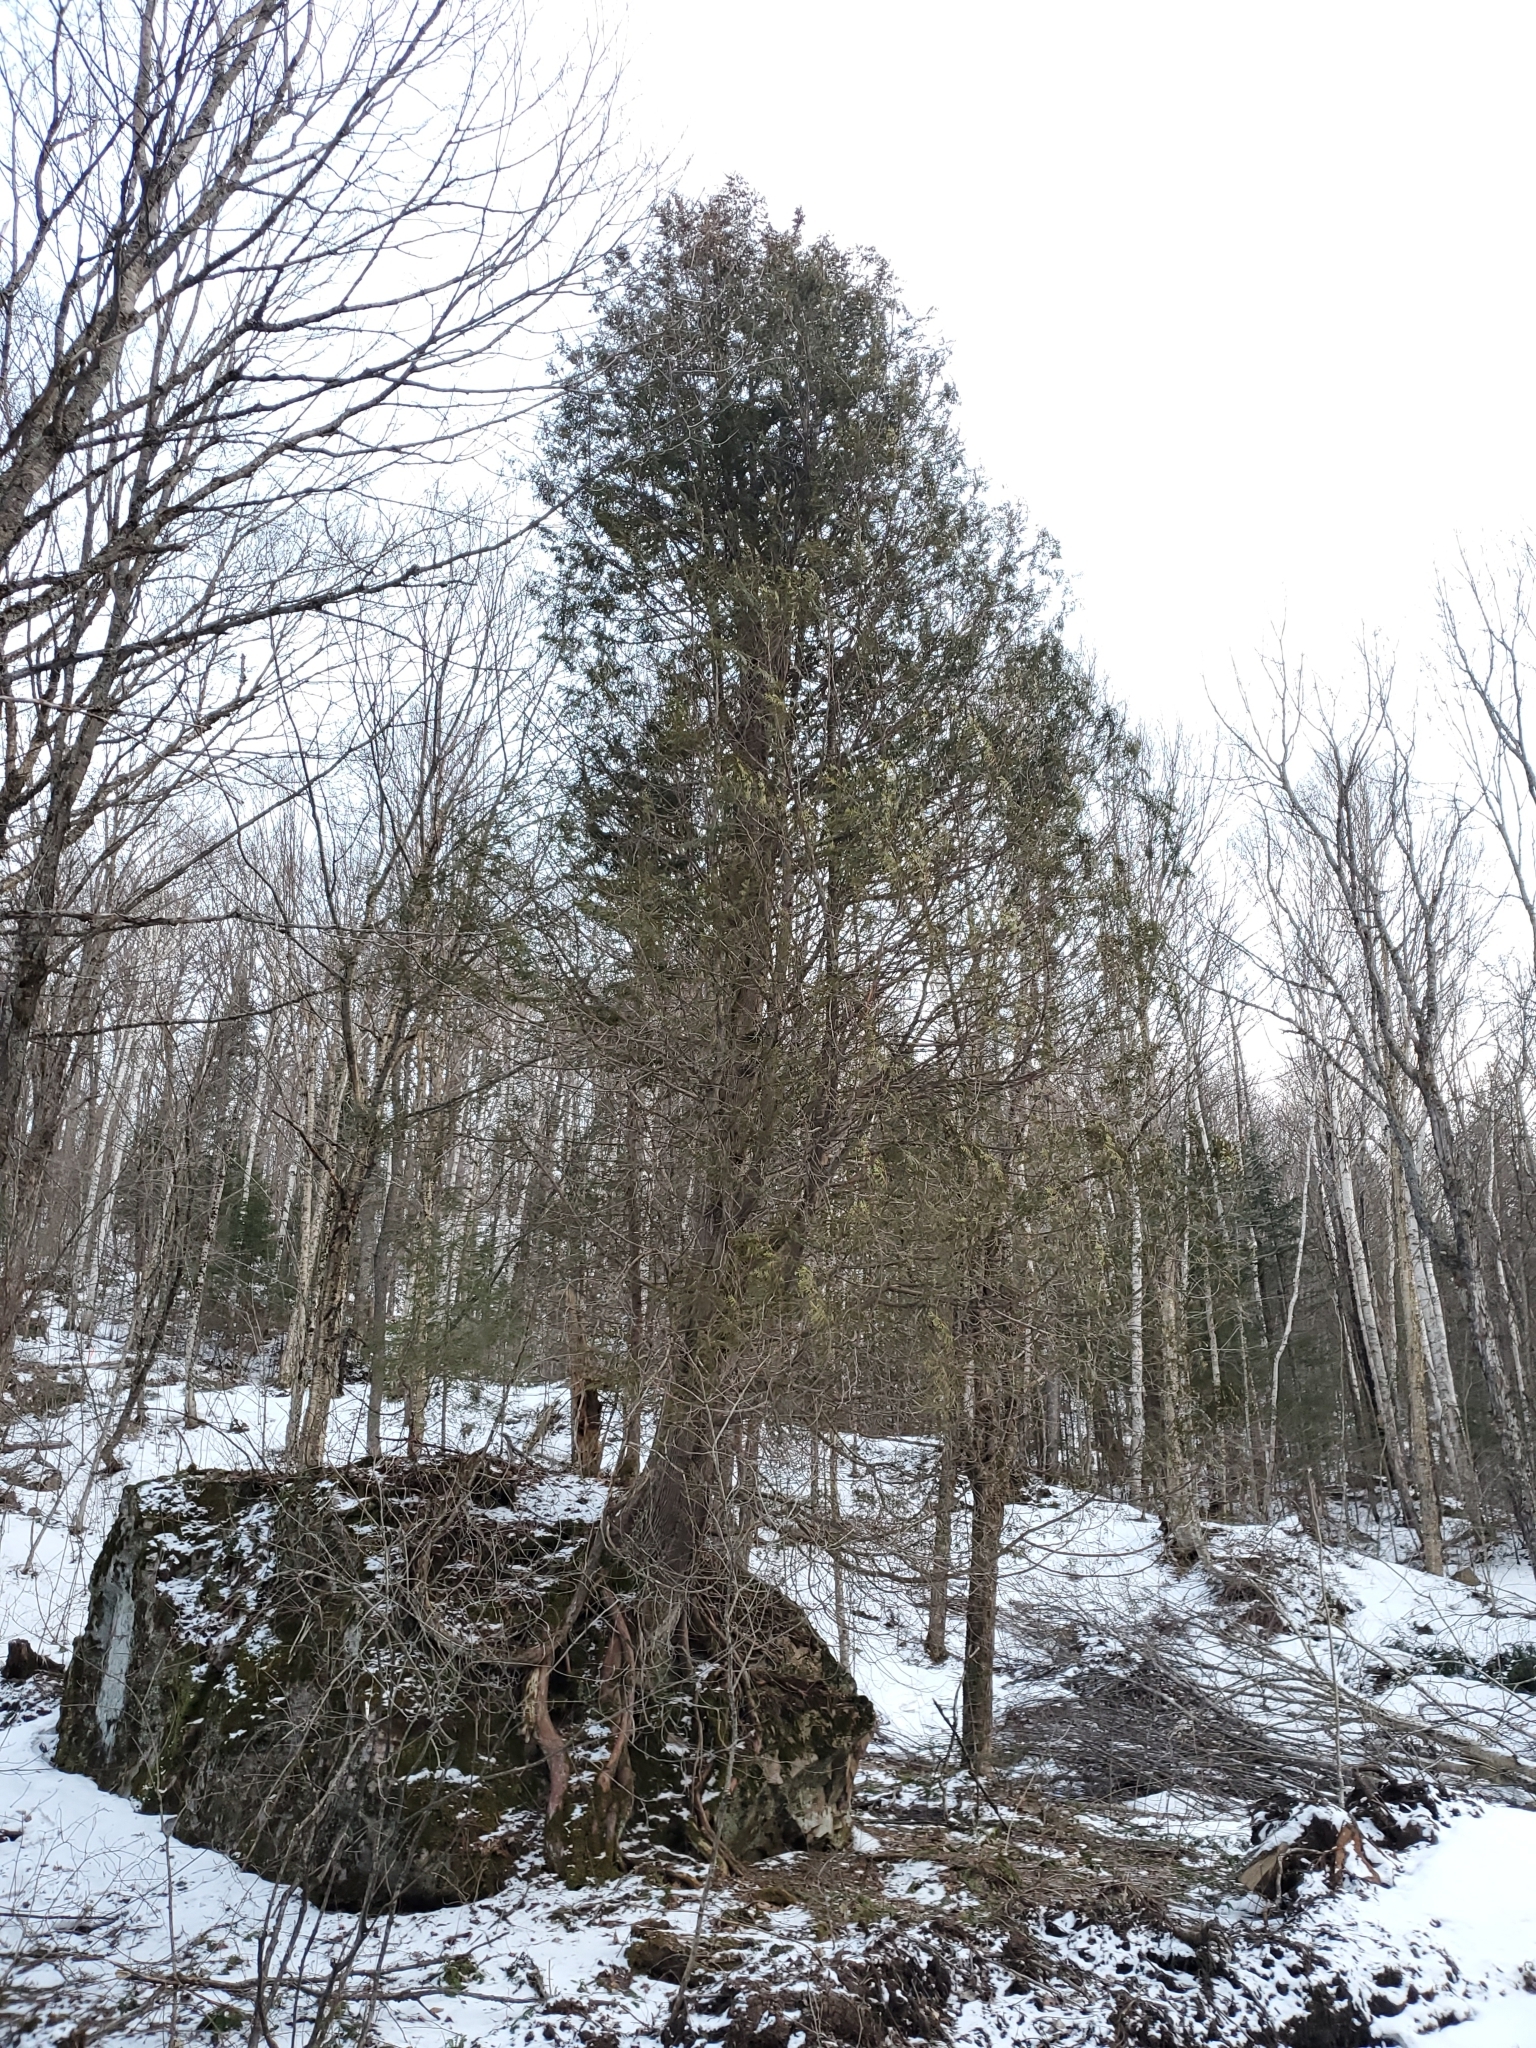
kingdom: Plantae
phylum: Tracheophyta
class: Pinopsida
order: Pinales
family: Cupressaceae
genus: Thuja
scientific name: Thuja occidentalis
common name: Northern white-cedar
